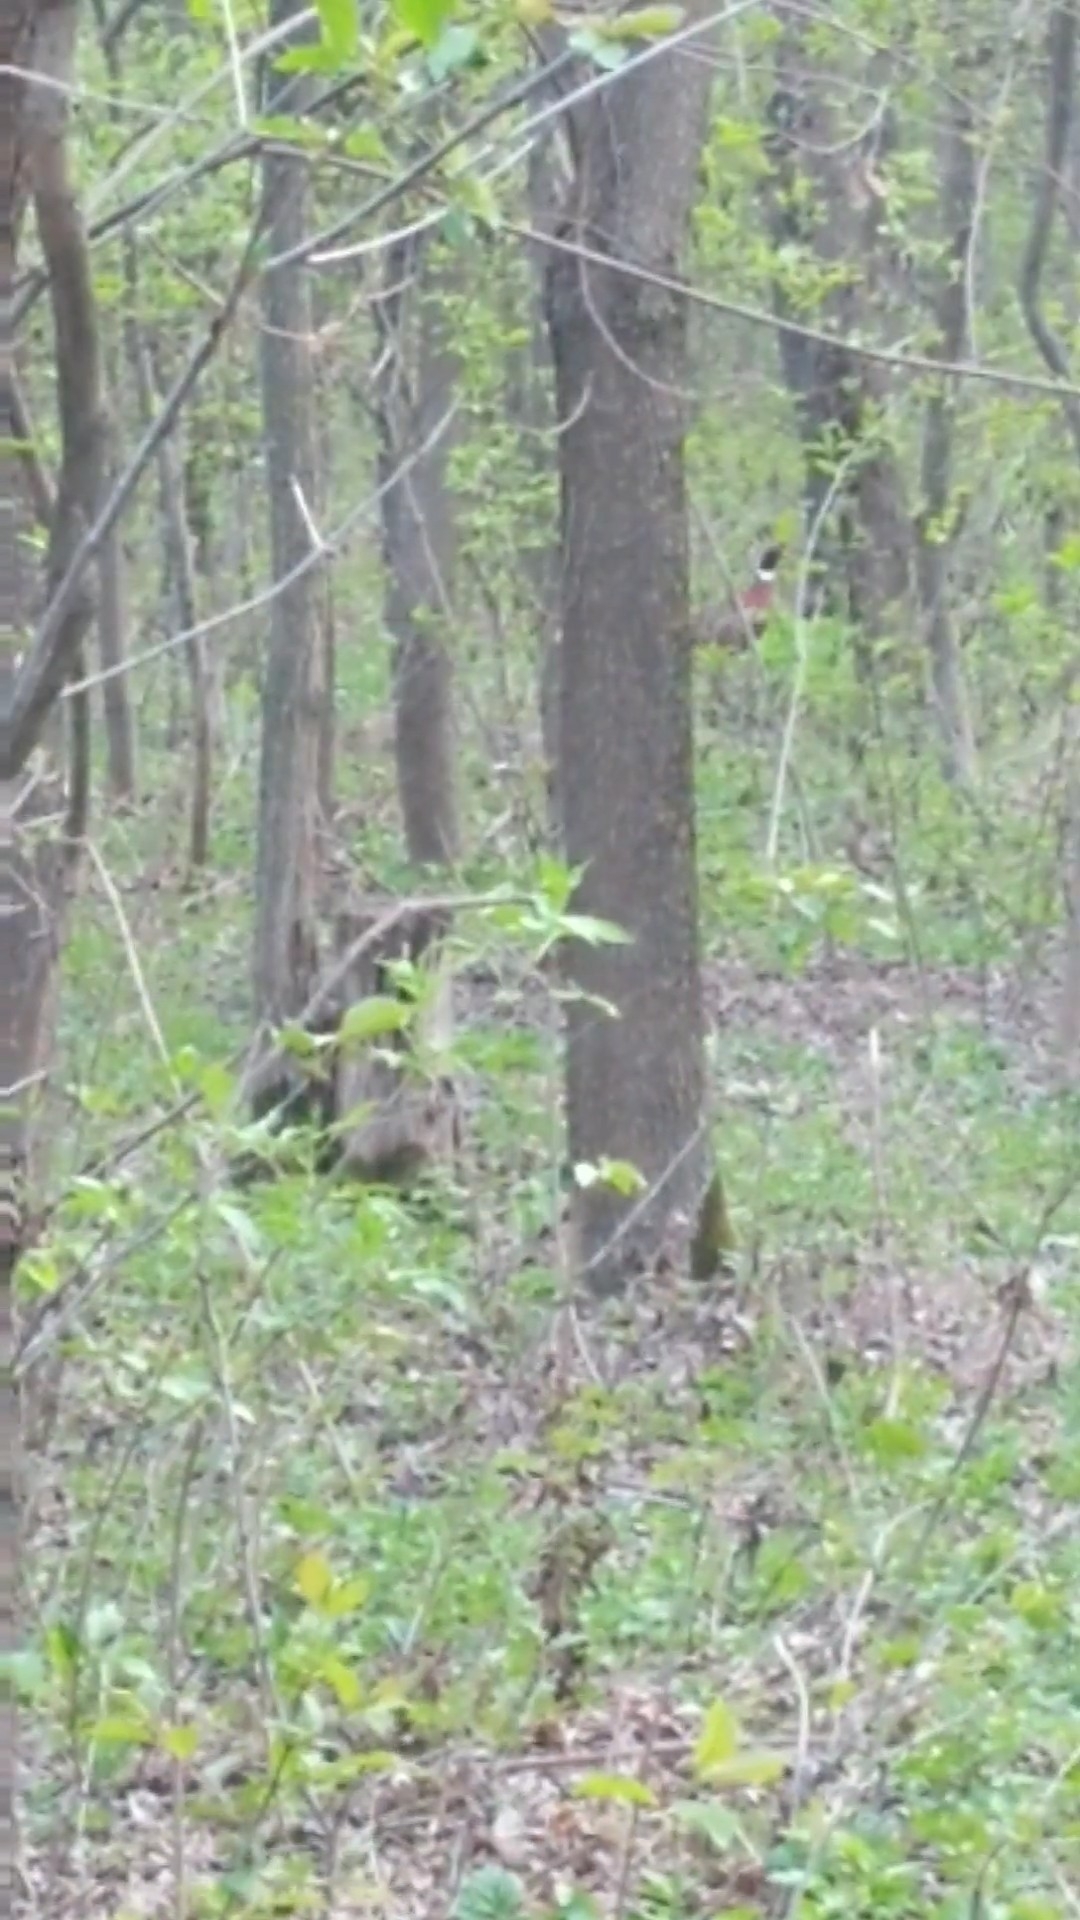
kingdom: Animalia
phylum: Chordata
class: Aves
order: Galliformes
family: Phasianidae
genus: Phasianus
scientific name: Phasianus colchicus
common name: Common pheasant
